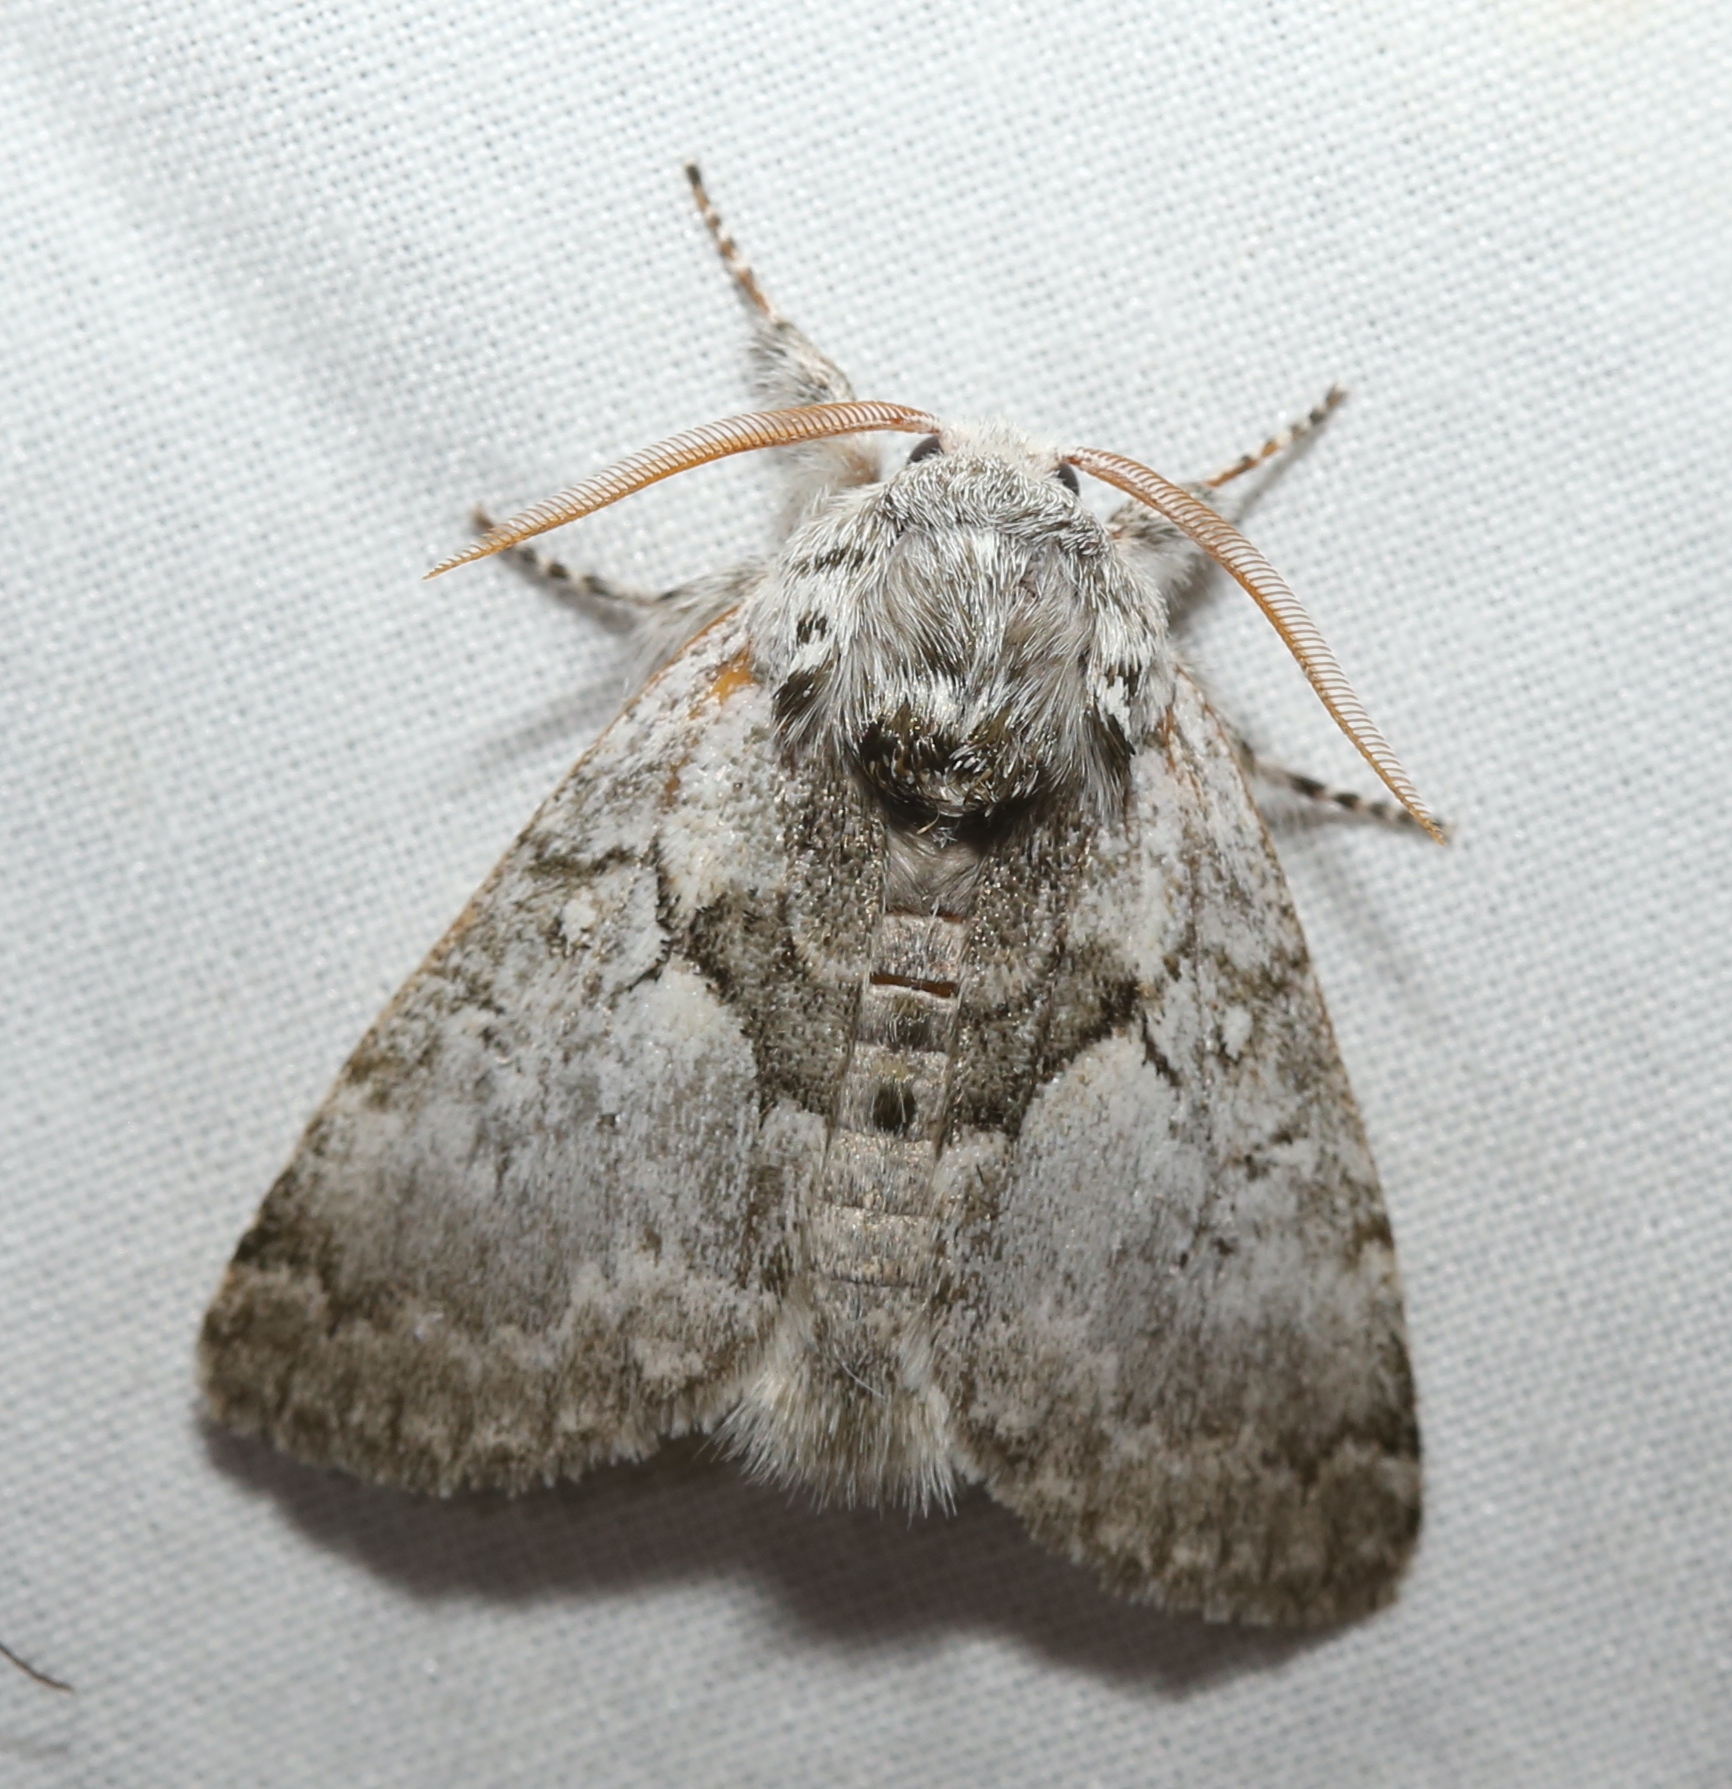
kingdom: Animalia
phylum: Arthropoda
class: Insecta
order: Lepidoptera
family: Noctuidae
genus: Colocasia
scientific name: Colocasia flavicornis
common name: Saddled yellowhorn
